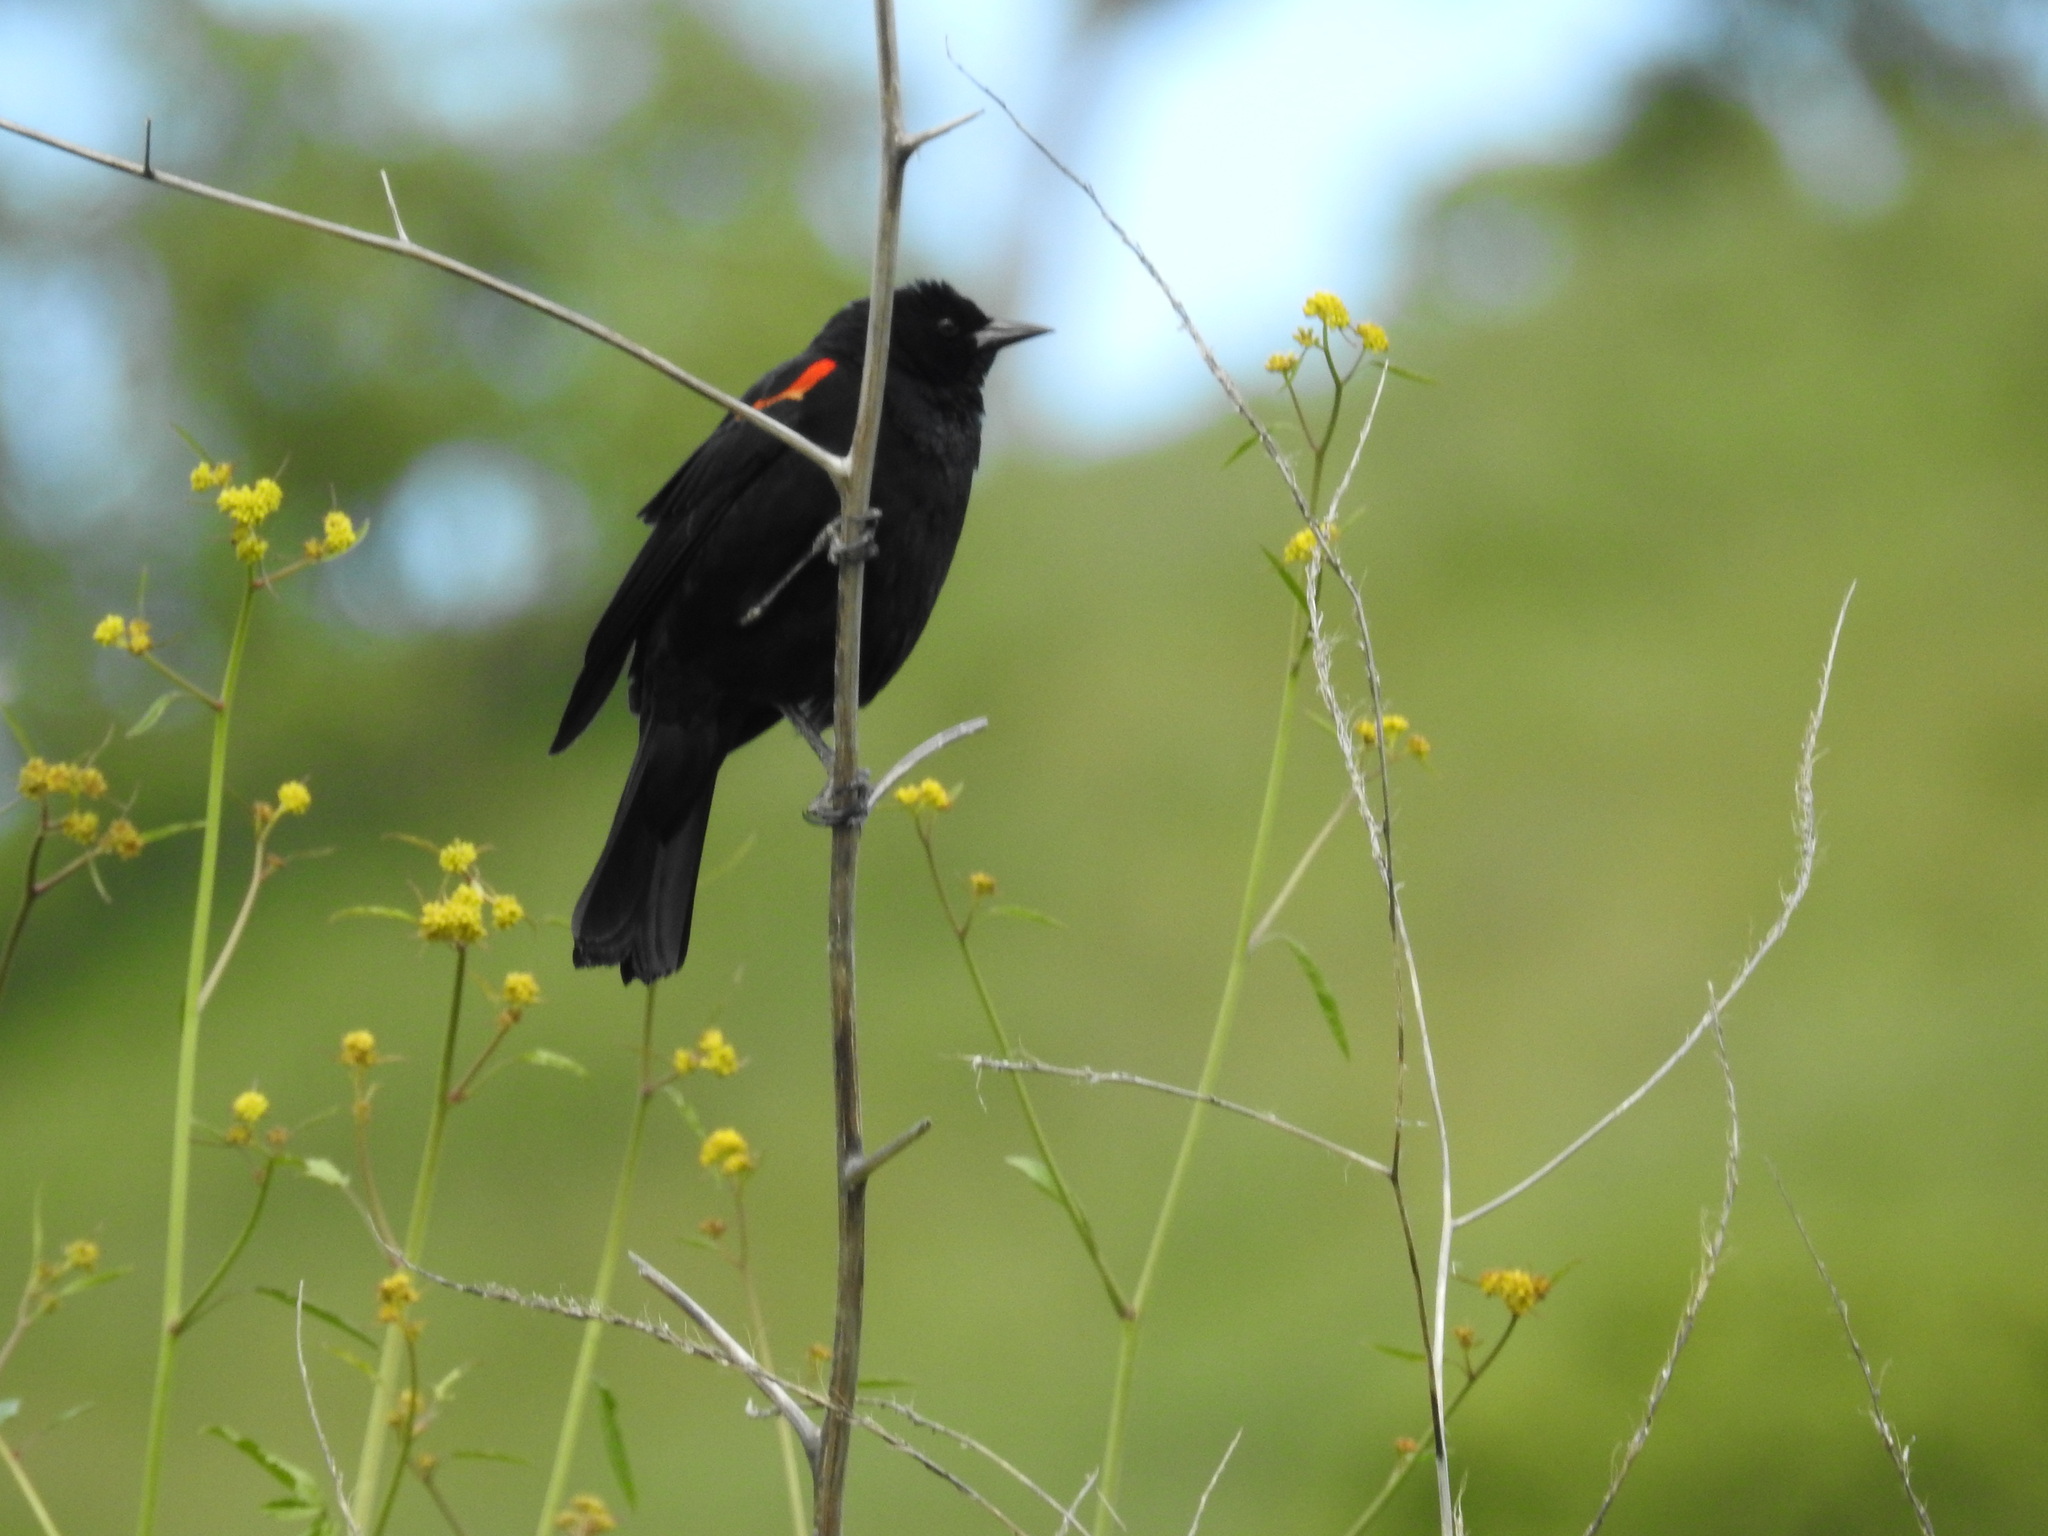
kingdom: Animalia
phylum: Chordata
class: Aves
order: Passeriformes
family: Icteridae
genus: Agelaius
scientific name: Agelaius phoeniceus
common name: Red-winged blackbird
